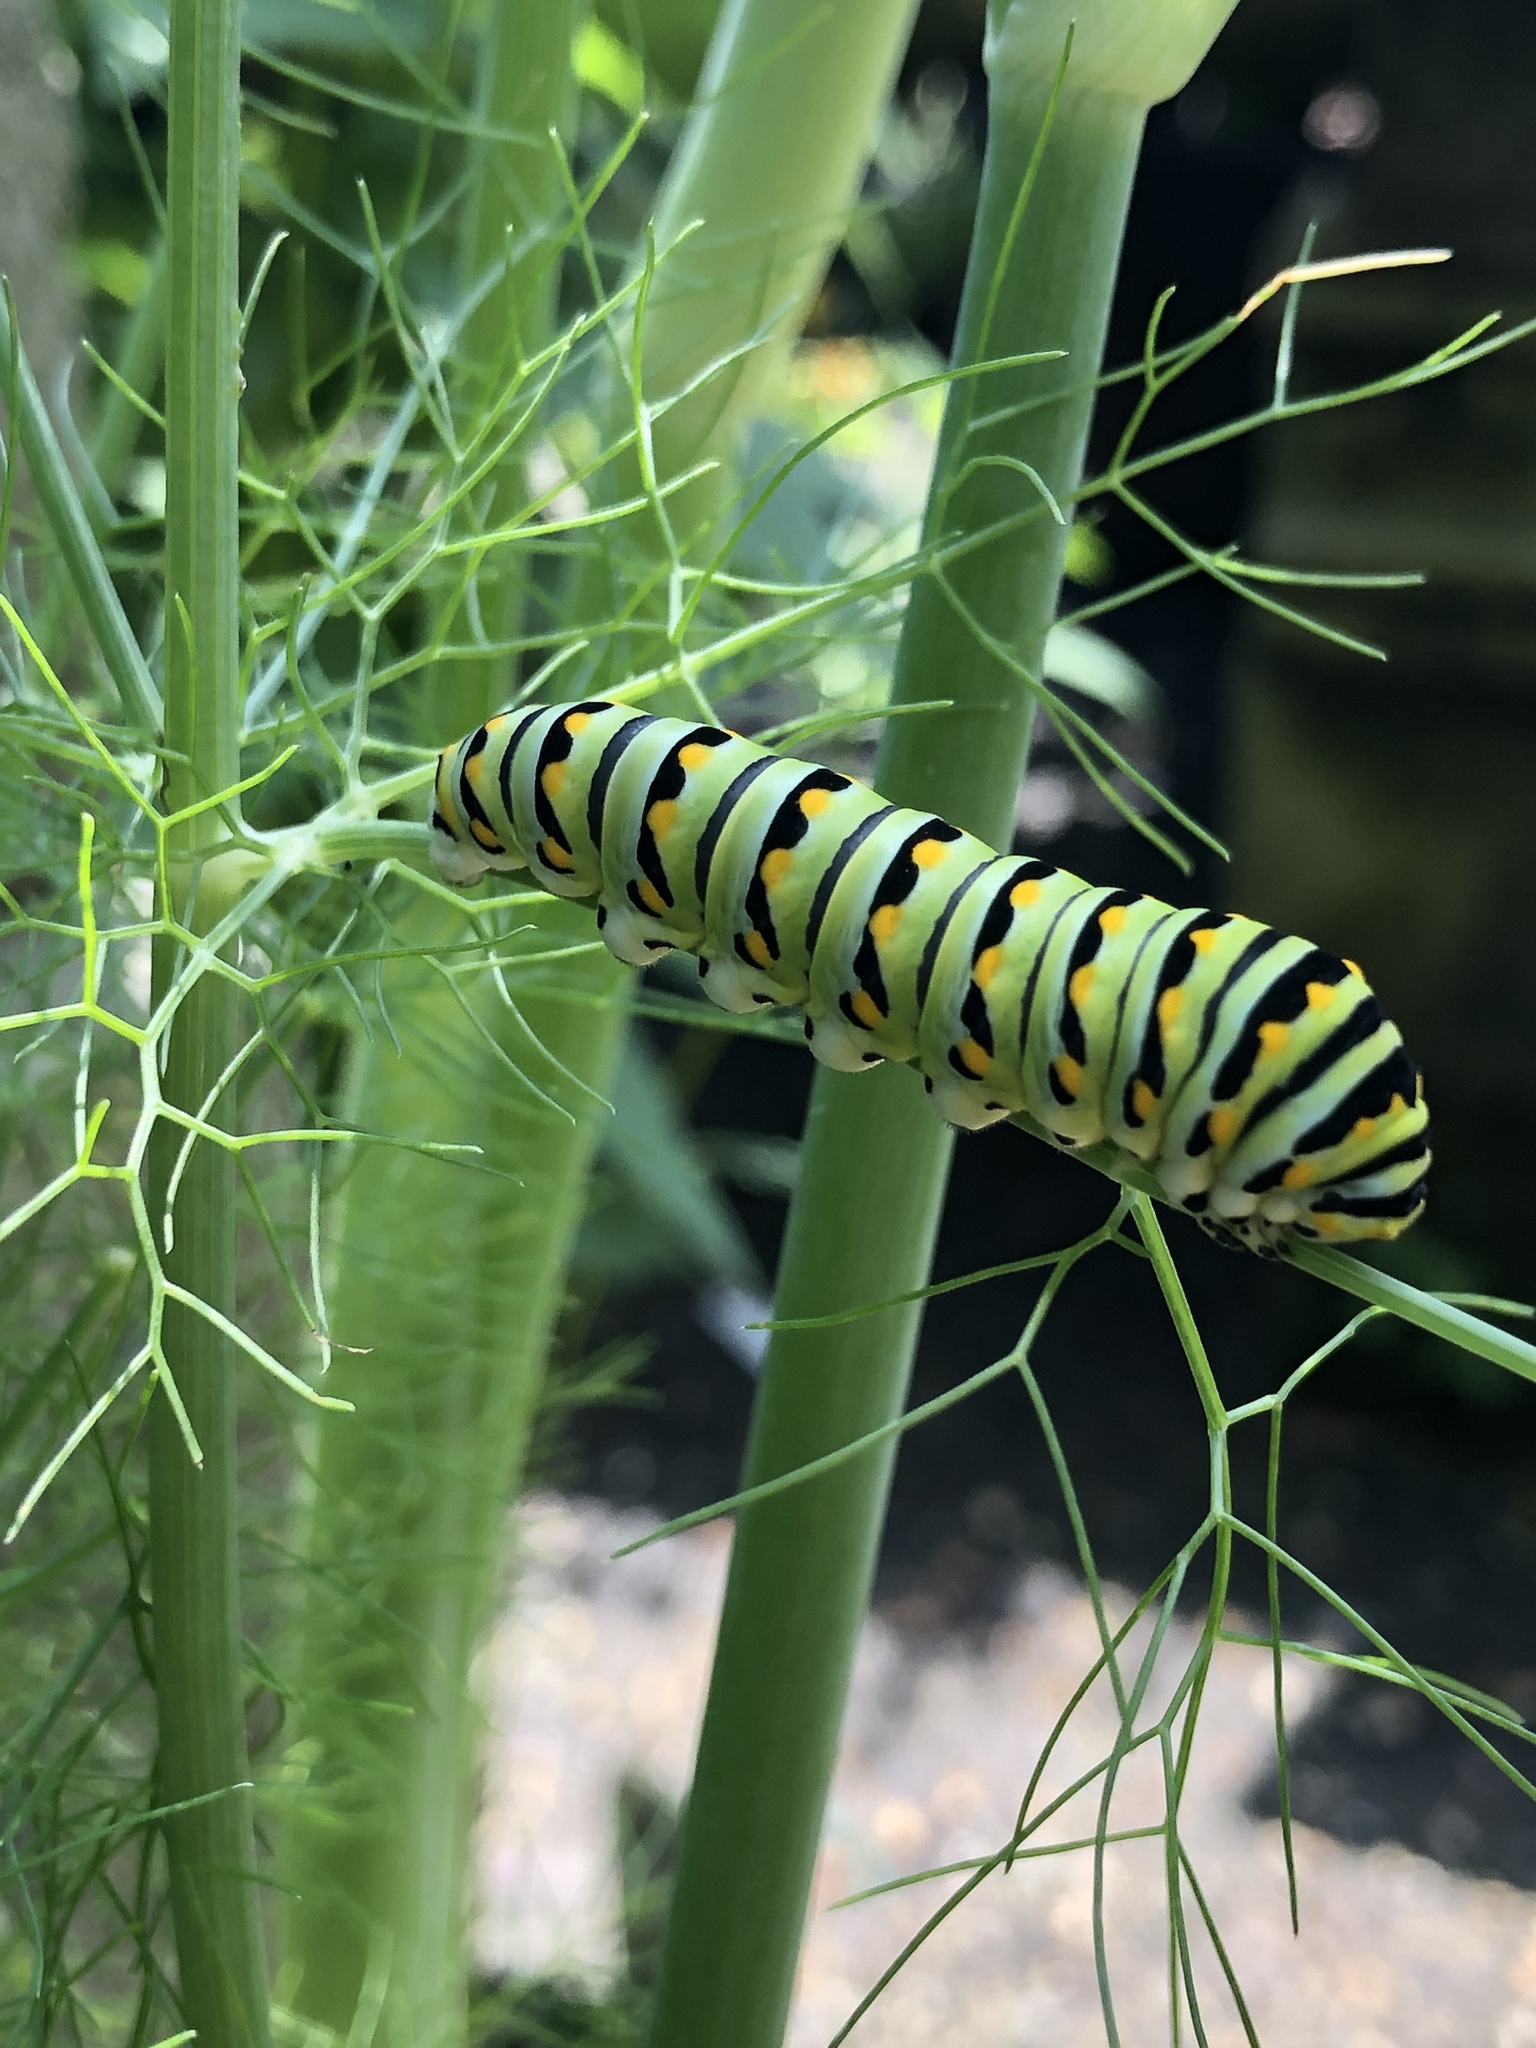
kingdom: Animalia
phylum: Arthropoda
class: Insecta
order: Lepidoptera
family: Papilionidae
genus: Papilio
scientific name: Papilio polyxenes
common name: Black swallowtail
